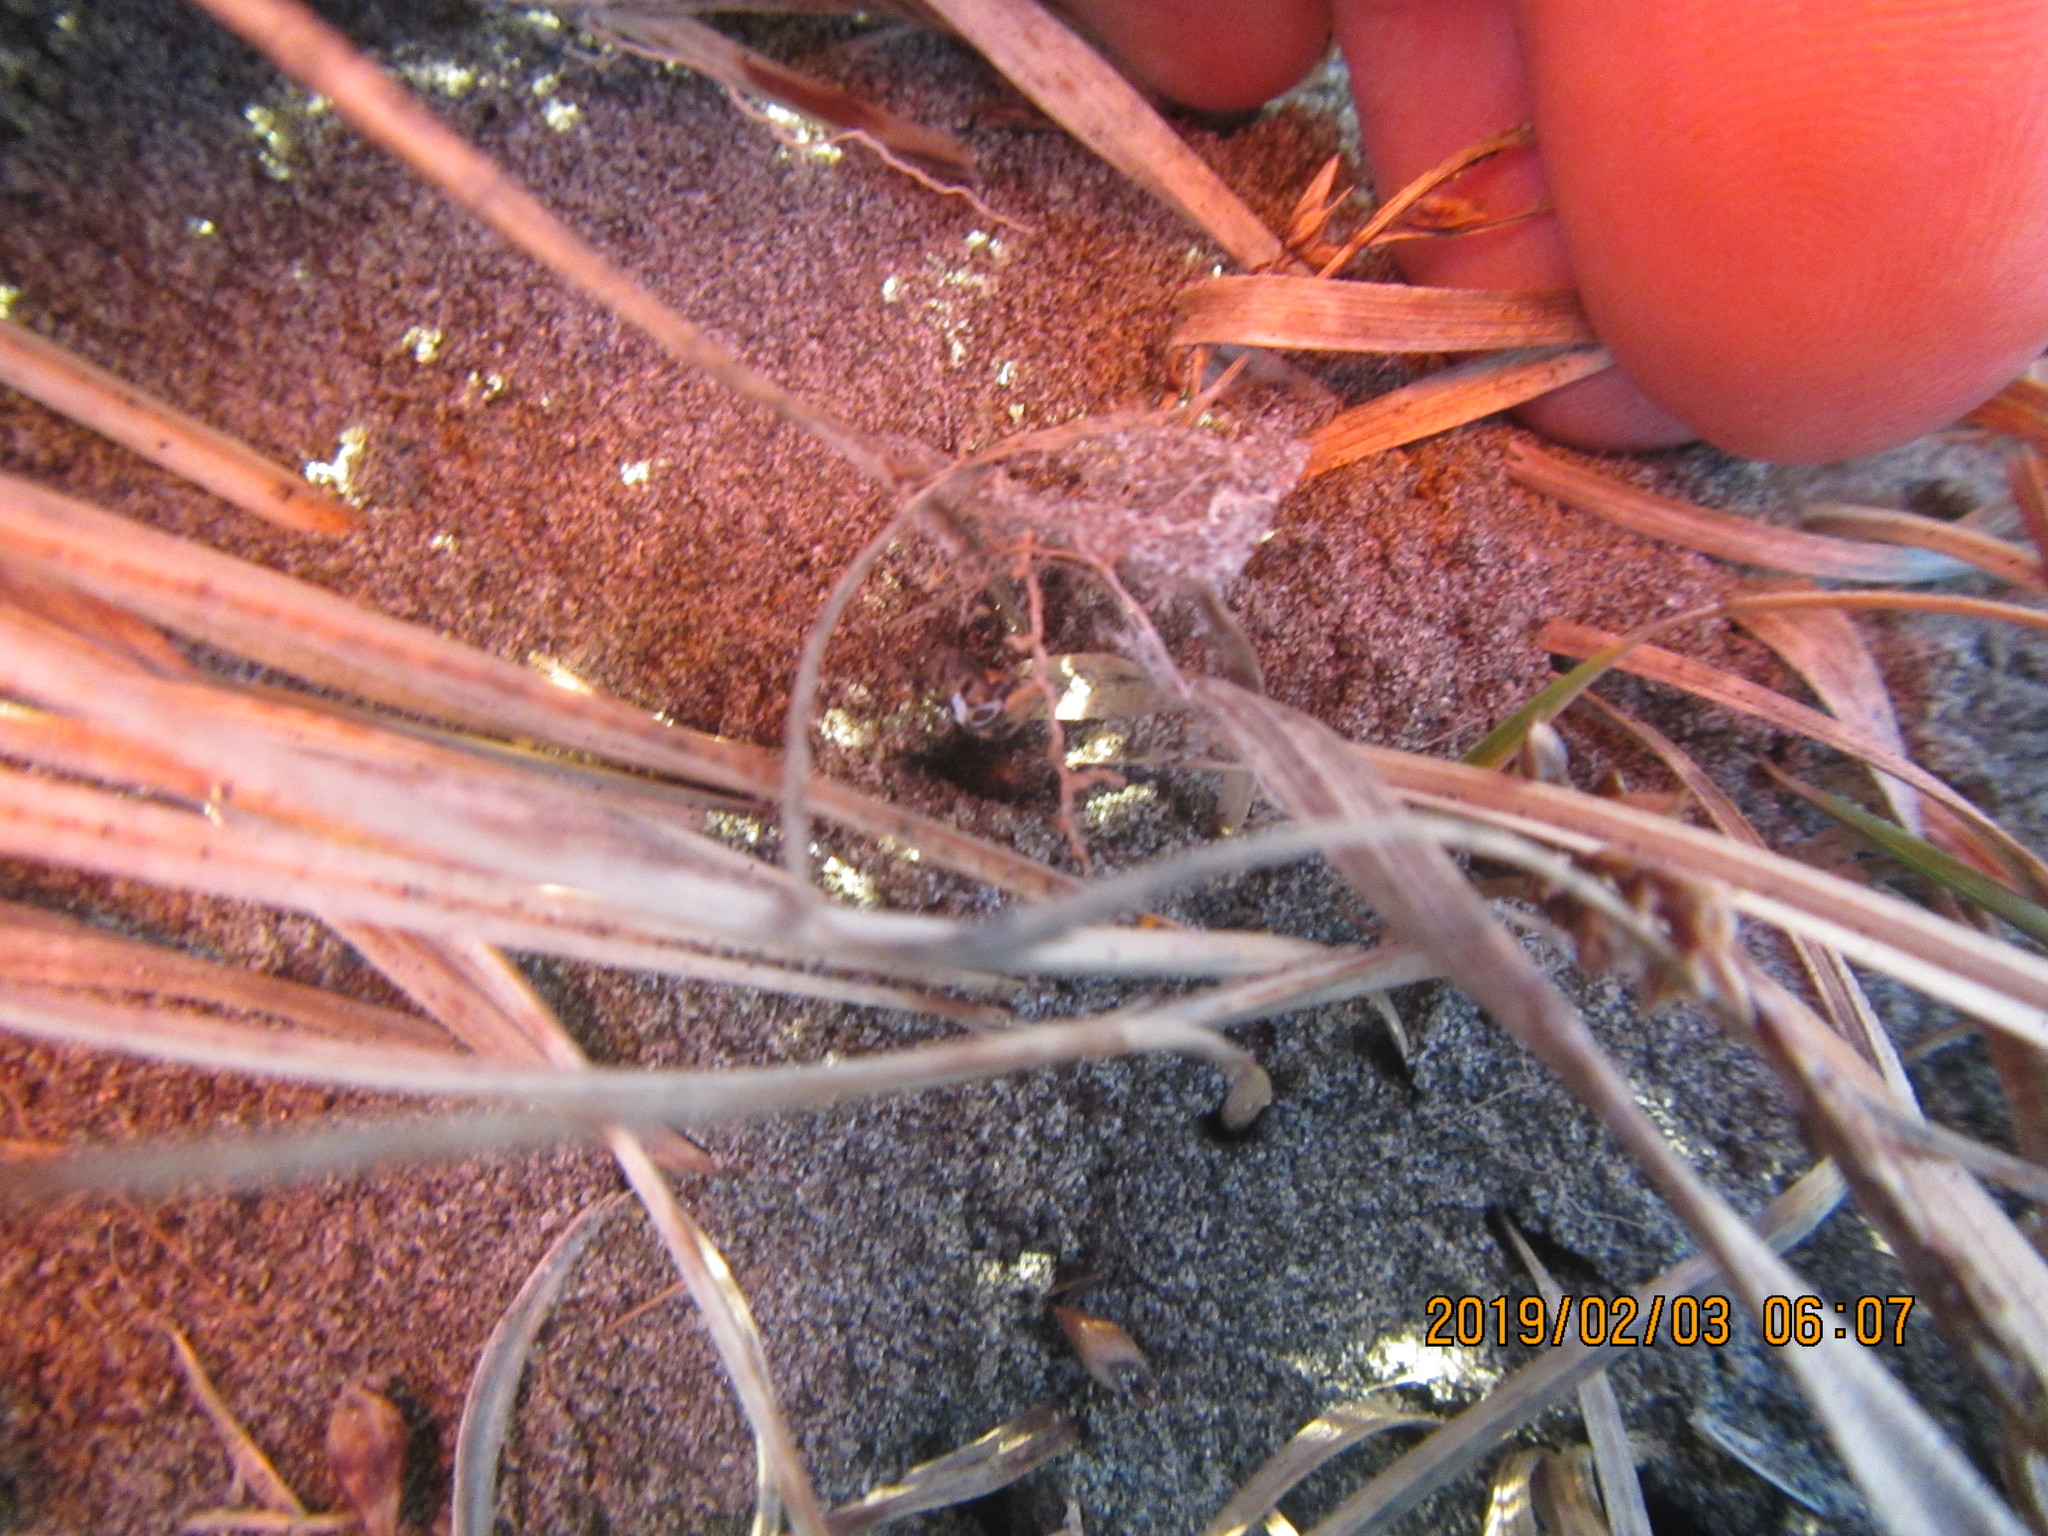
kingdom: Animalia
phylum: Arthropoda
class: Arachnida
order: Araneae
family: Theridiidae
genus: Latrodectus
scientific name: Latrodectus katipo
